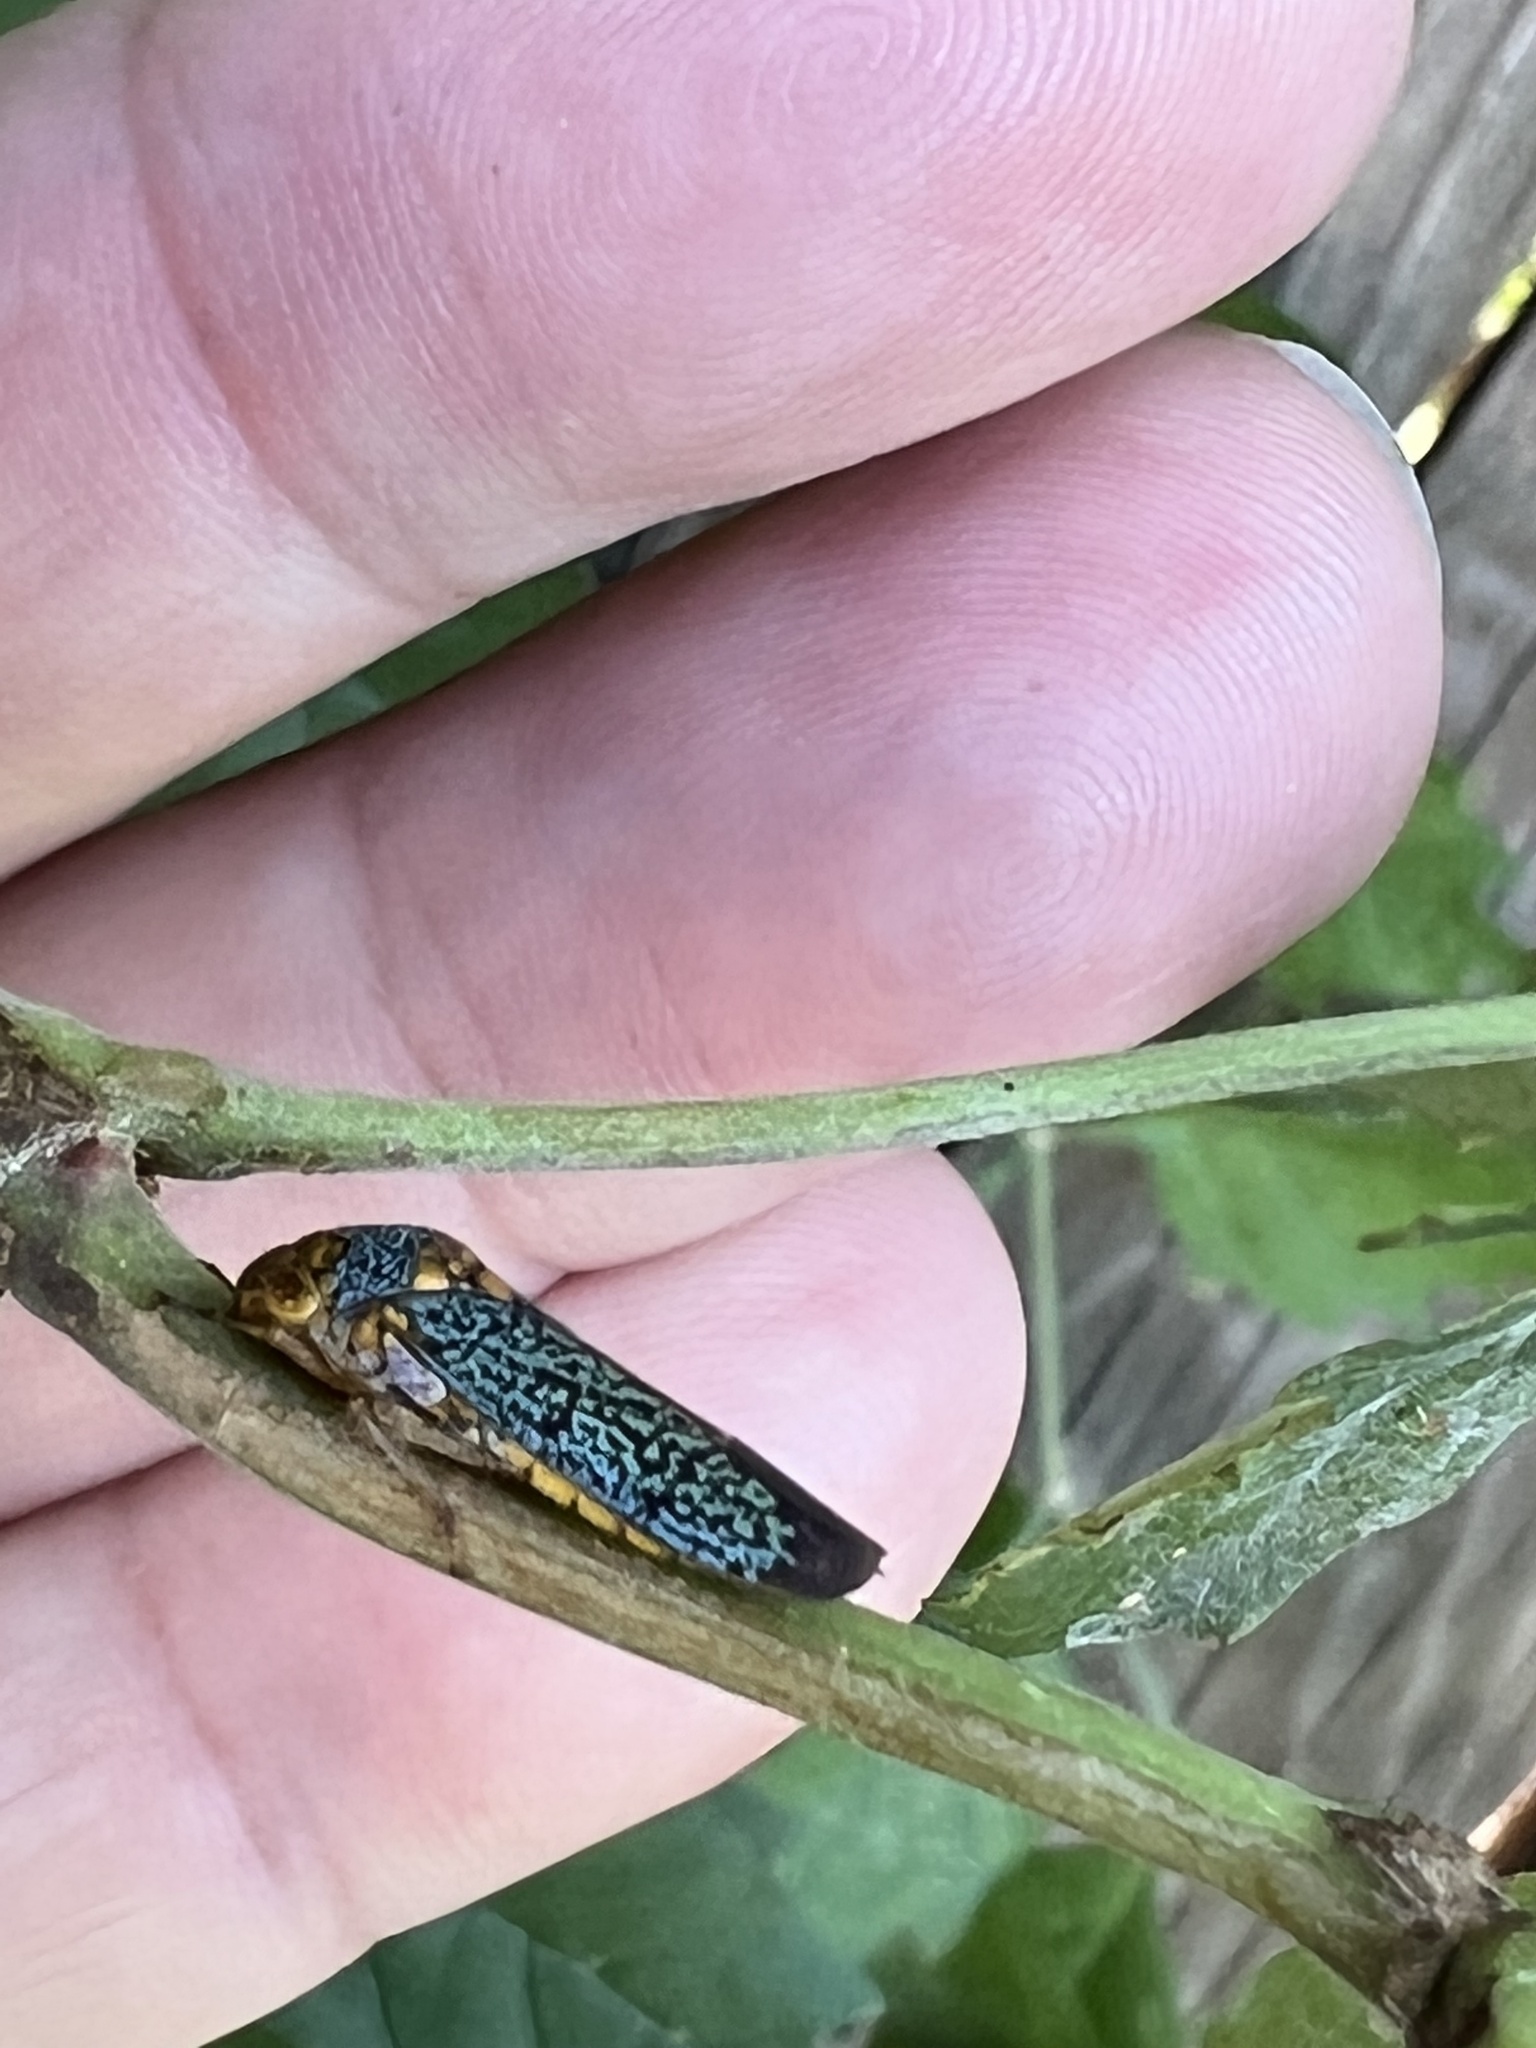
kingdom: Animalia
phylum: Arthropoda
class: Insecta
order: Hemiptera
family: Cicadellidae
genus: Oncometopia
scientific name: Oncometopia orbona
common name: Broad-headed sharpshooter
